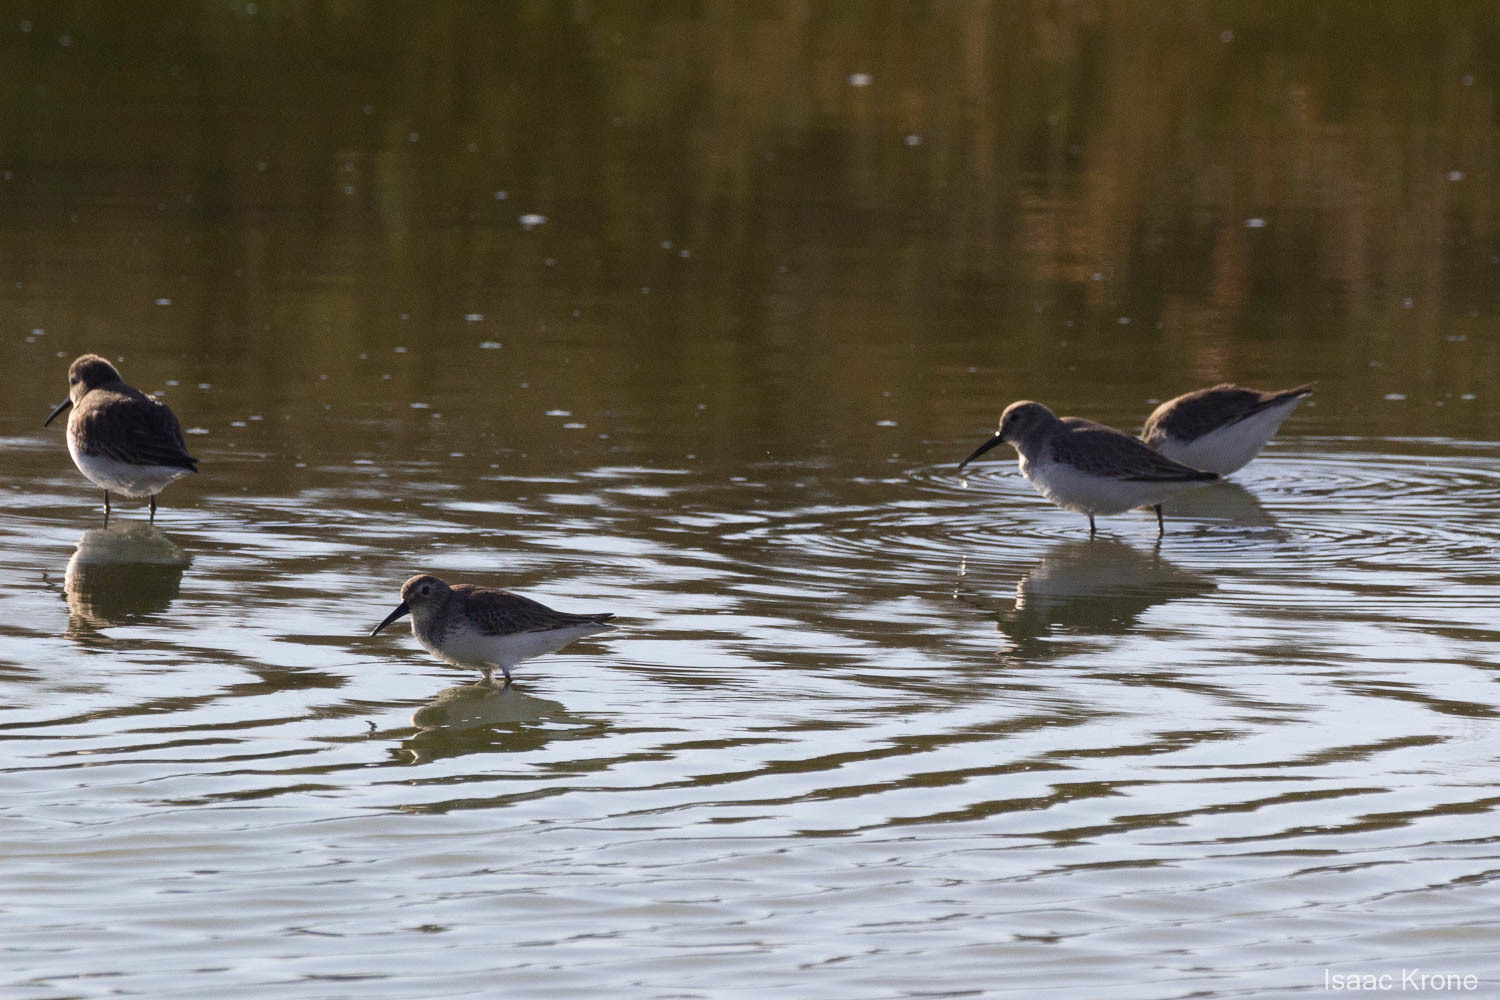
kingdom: Animalia
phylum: Chordata
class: Aves
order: Charadriiformes
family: Scolopacidae
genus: Calidris
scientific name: Calidris alpina
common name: Dunlin
